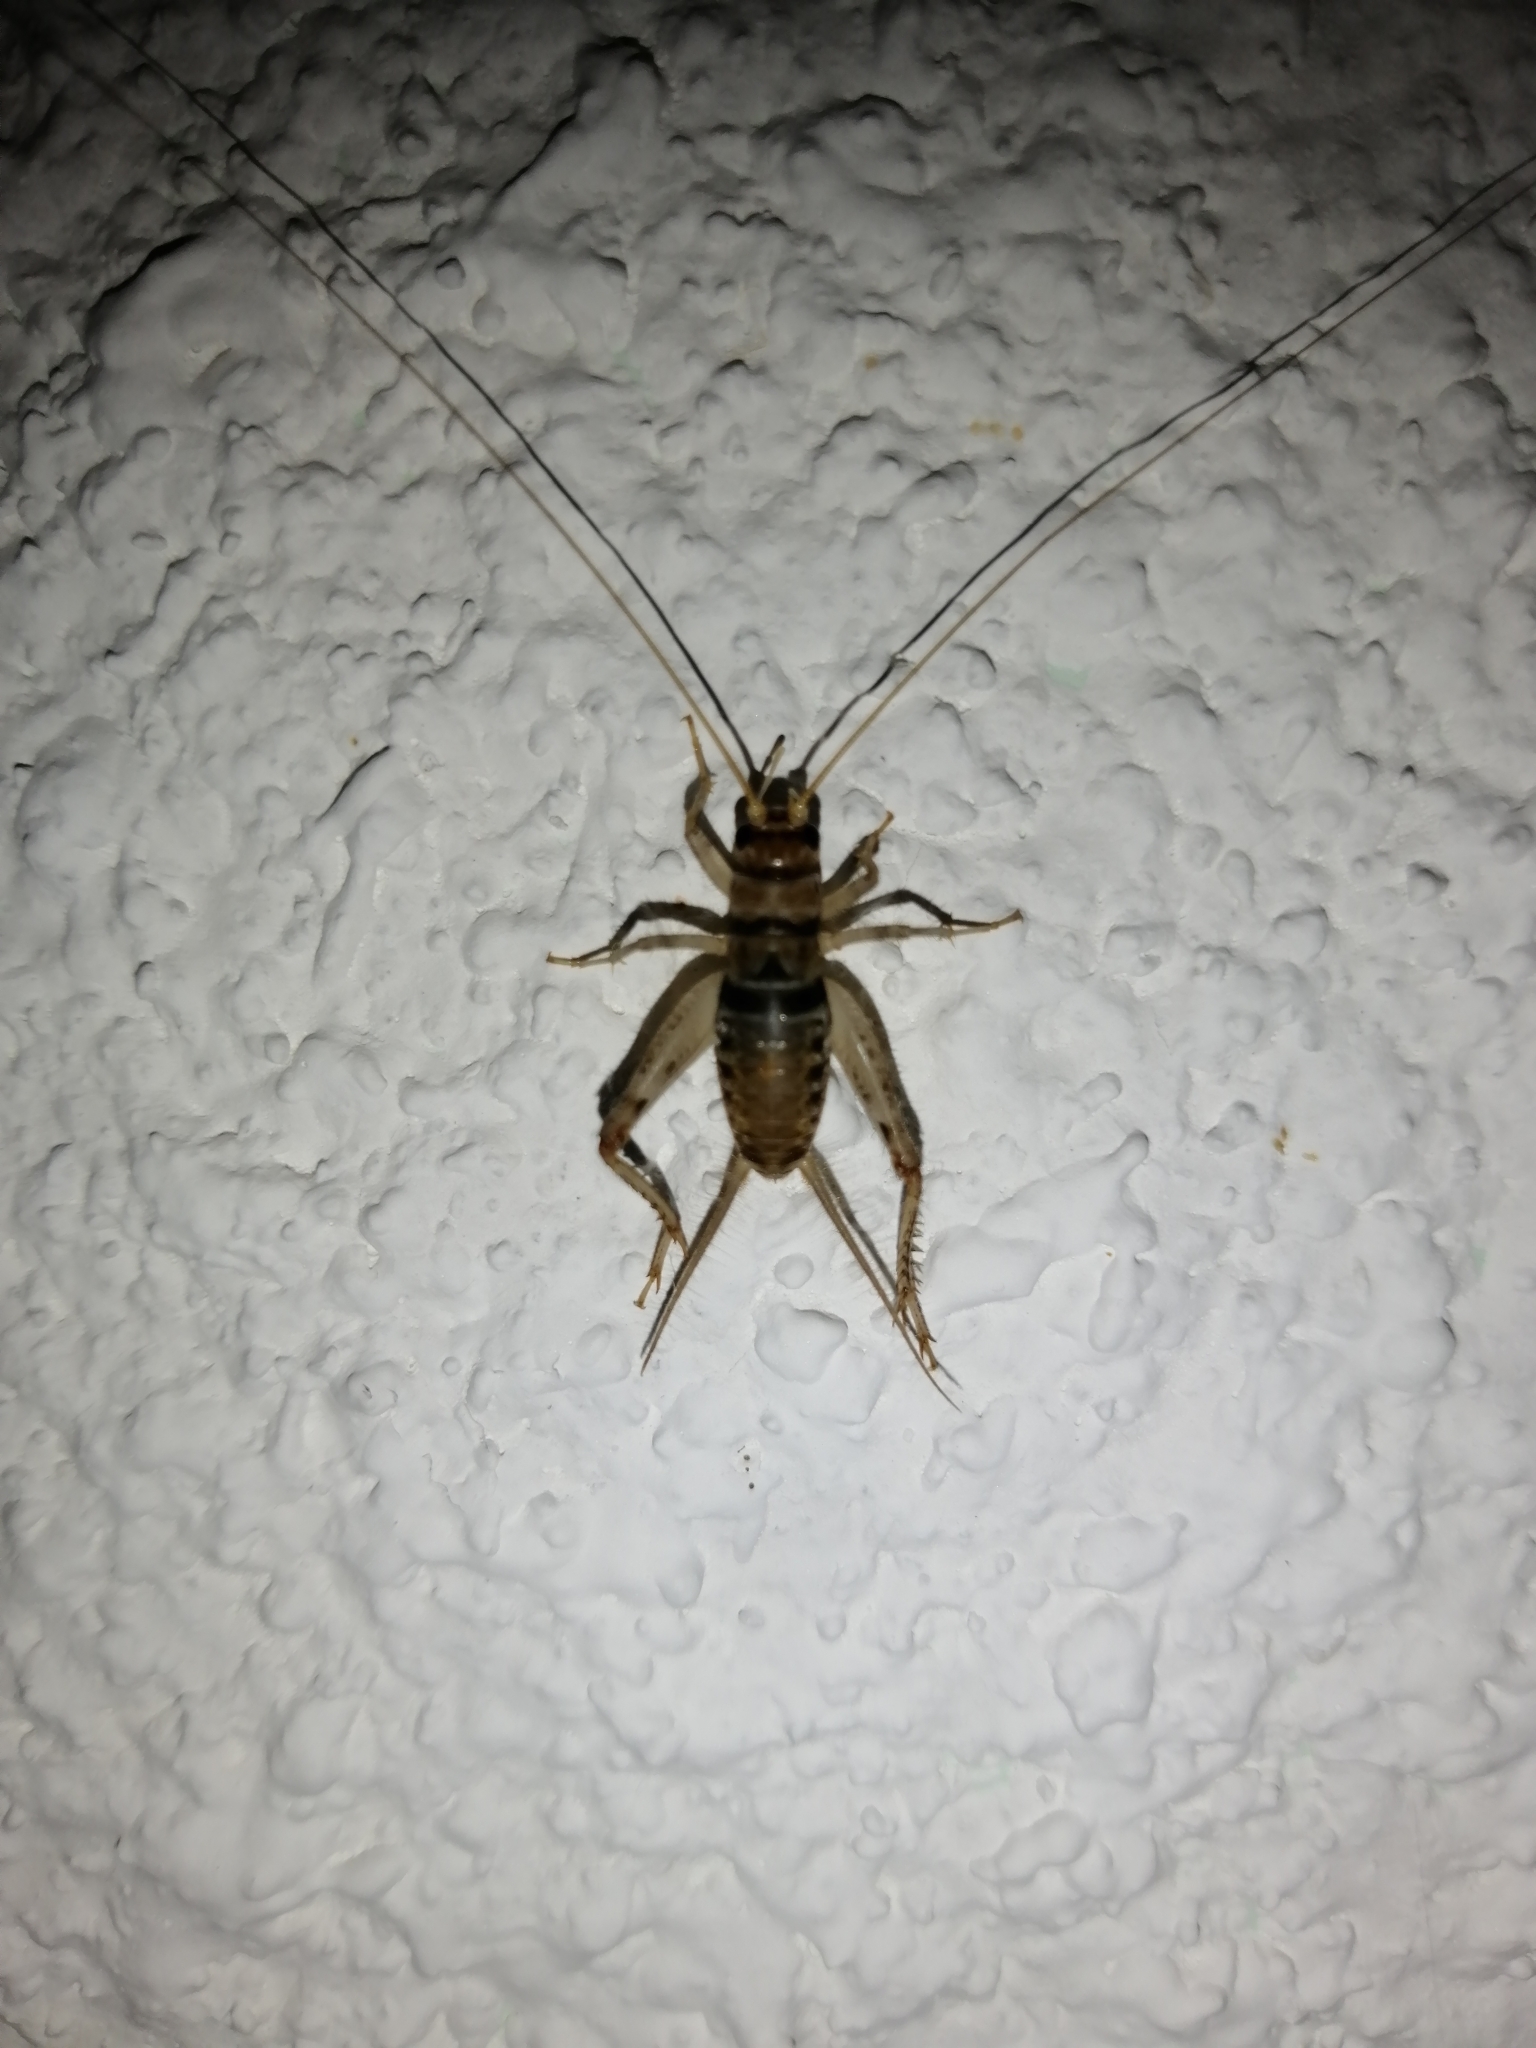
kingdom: Animalia
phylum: Arthropoda
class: Insecta
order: Orthoptera
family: Gryllidae
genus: Gryllodes
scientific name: Gryllodes sigillatus
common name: Tropical house cricket
